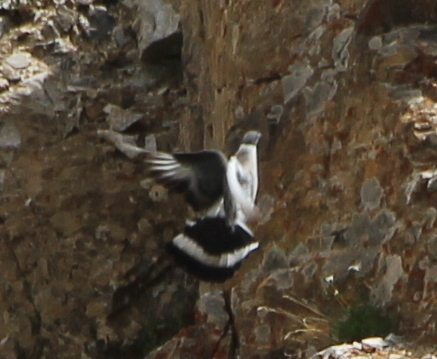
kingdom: Animalia
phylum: Chordata
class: Aves
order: Columbiformes
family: Columbidae
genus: Columba
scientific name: Columba leuconota
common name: Snow pigeon
